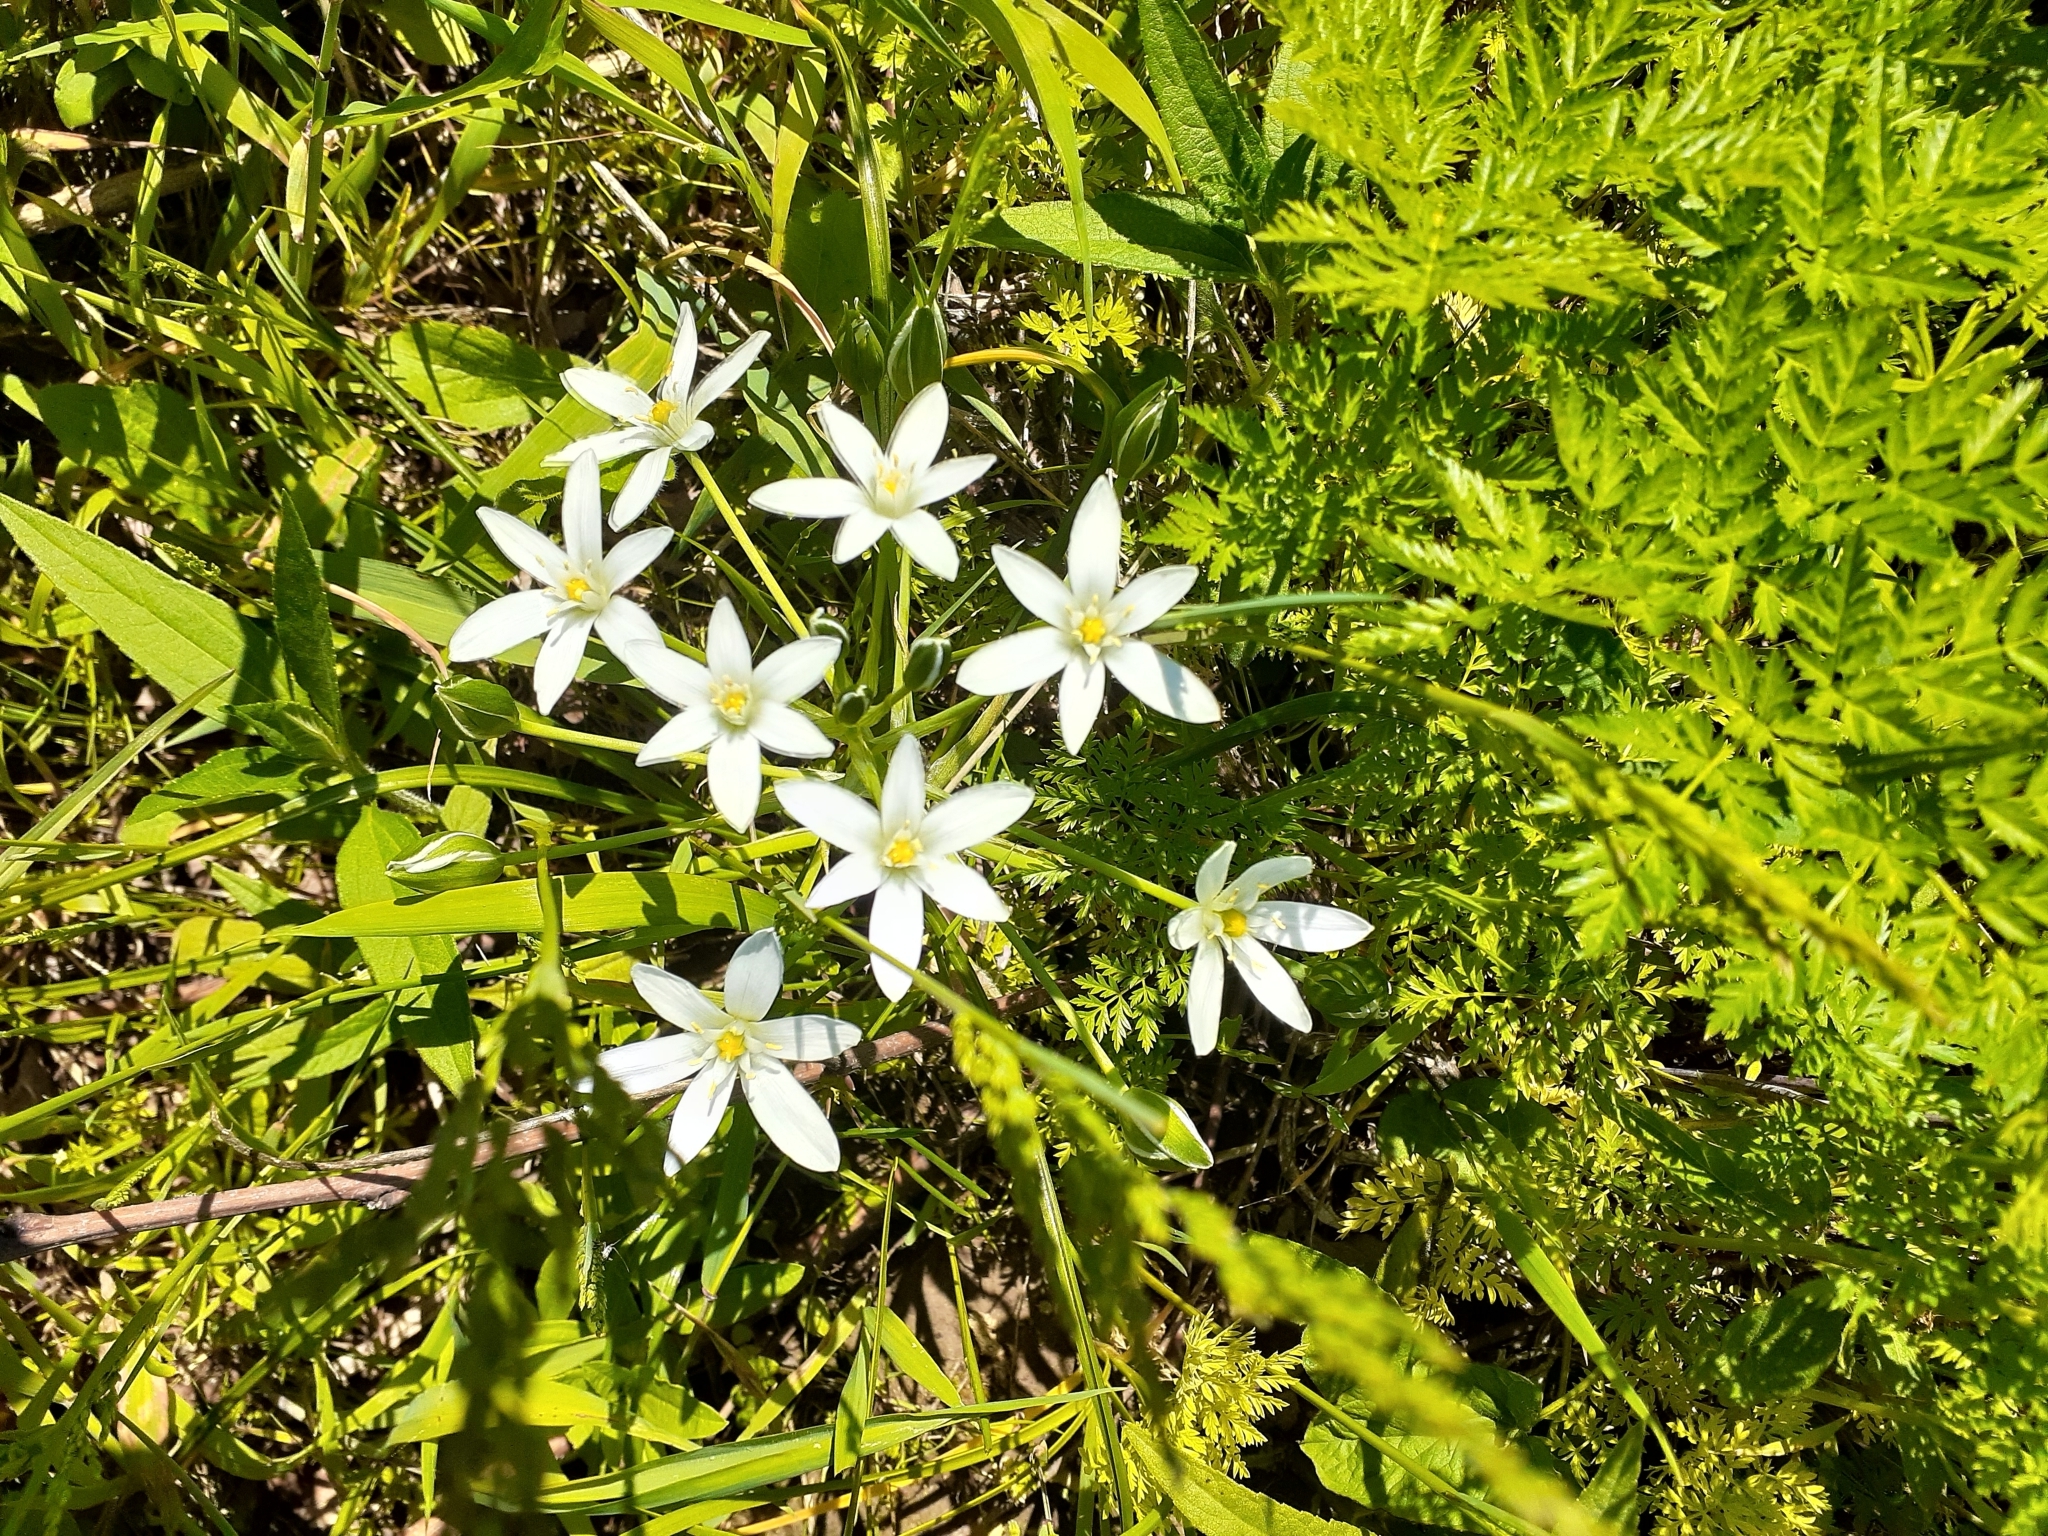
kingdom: Plantae
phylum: Tracheophyta
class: Liliopsida
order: Asparagales
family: Asparagaceae
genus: Ornithogalum
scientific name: Ornithogalum umbellatum
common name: Garden star-of-bethlehem
